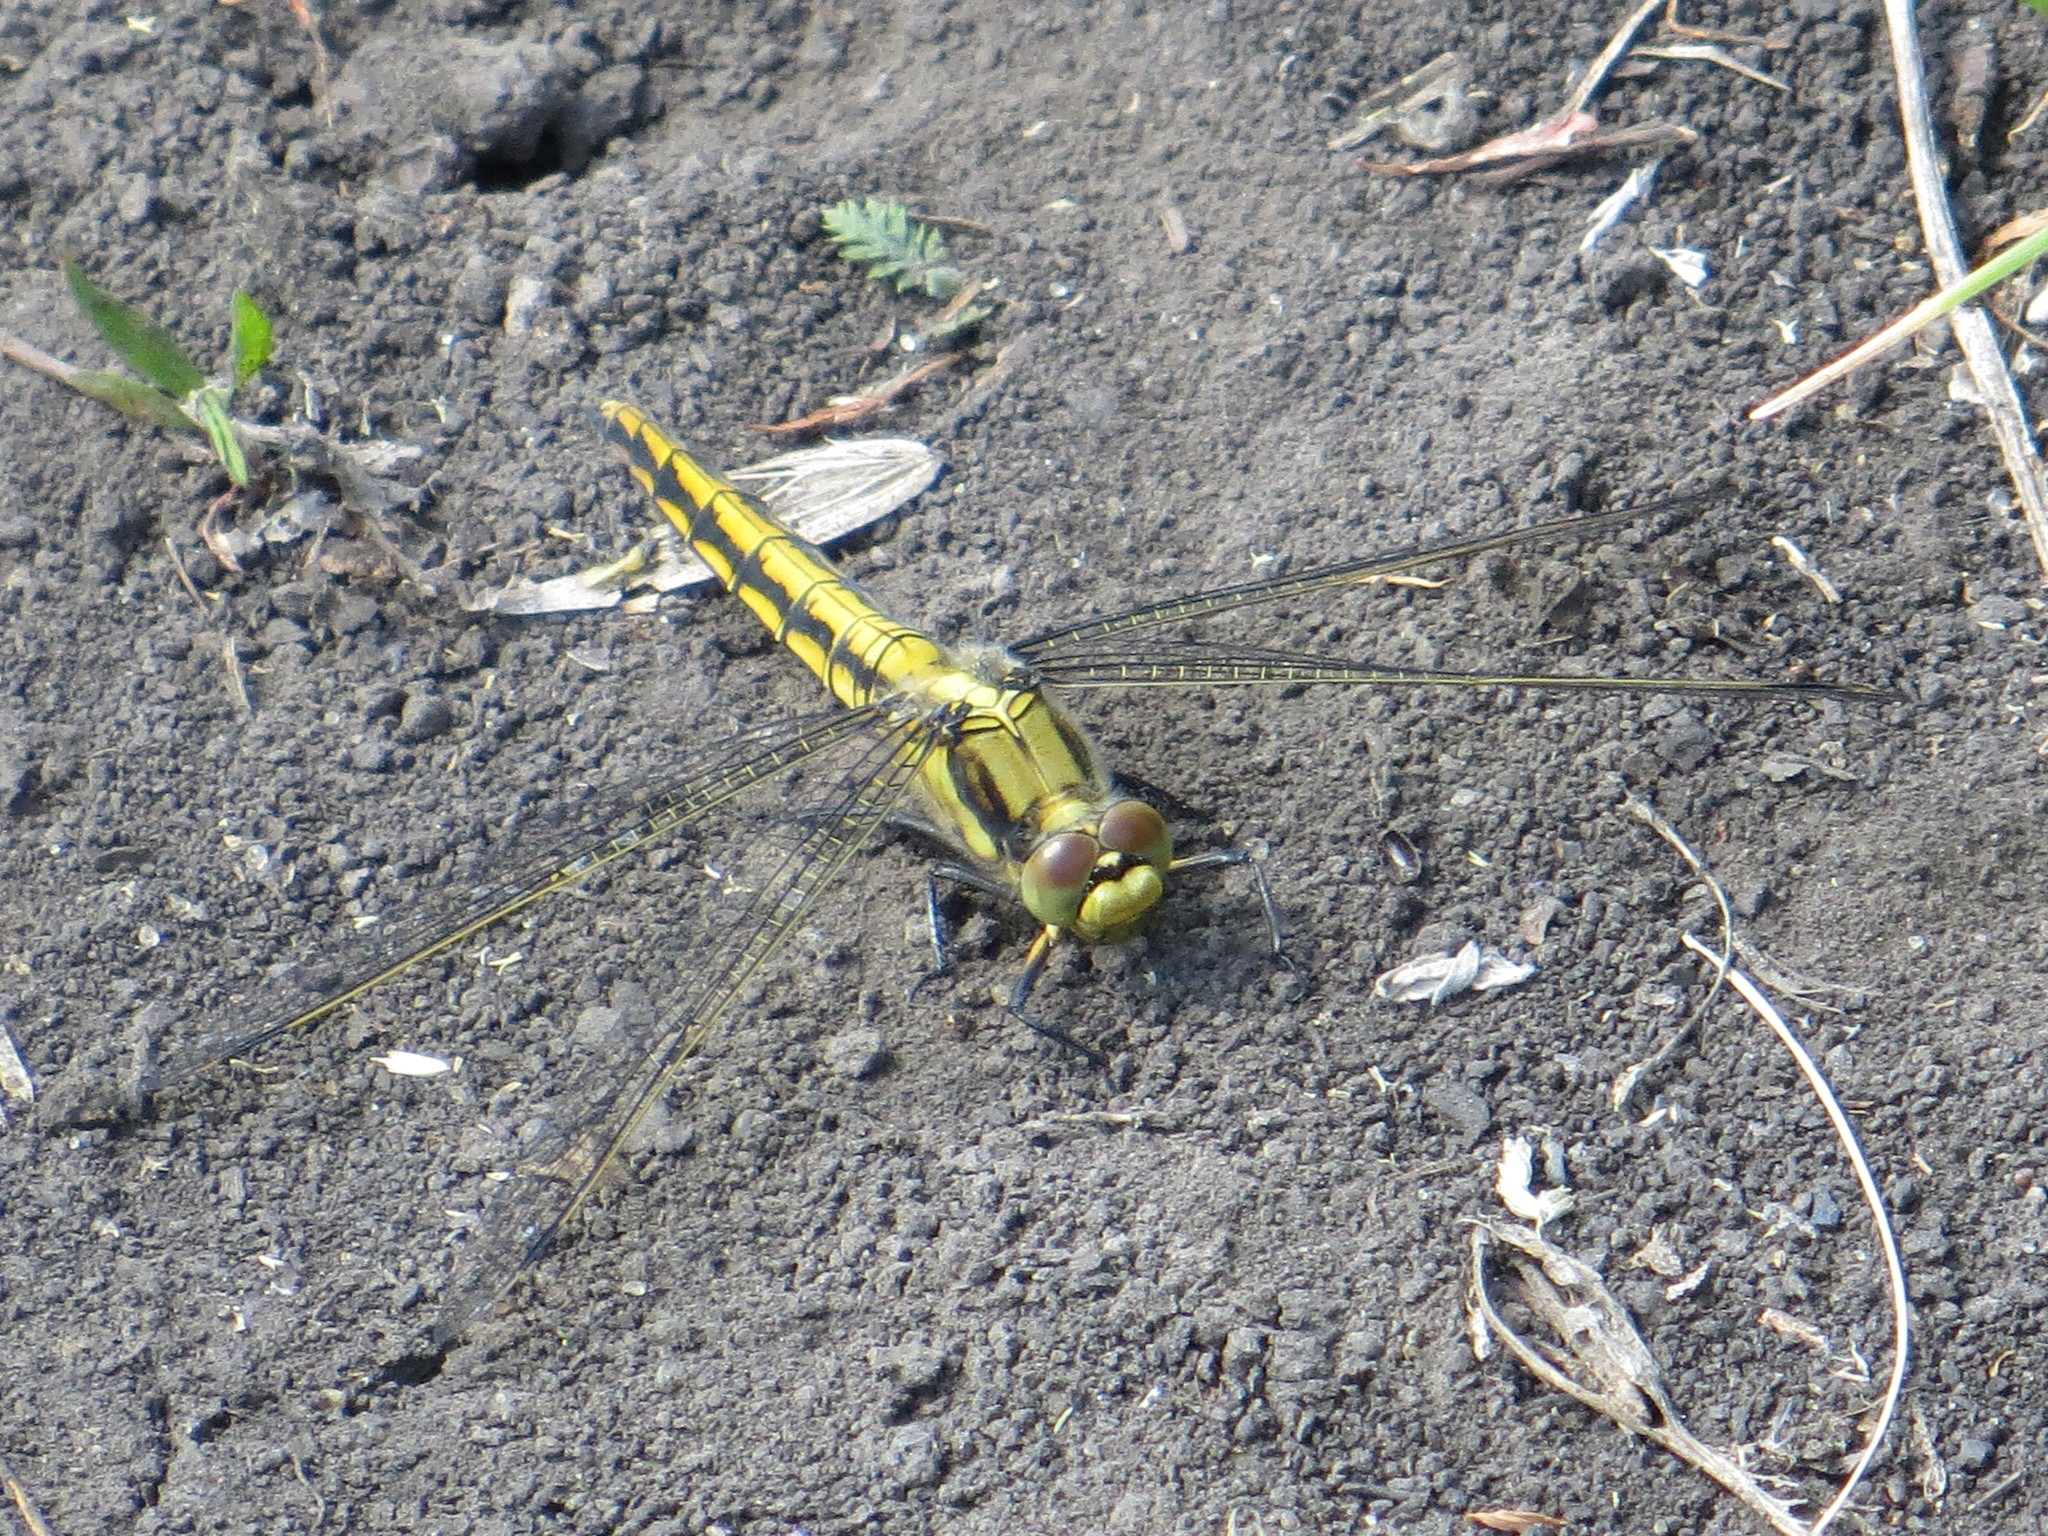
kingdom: Animalia
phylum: Arthropoda
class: Insecta
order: Odonata
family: Libellulidae
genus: Orthetrum
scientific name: Orthetrum cancellatum
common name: Black-tailed skimmer
